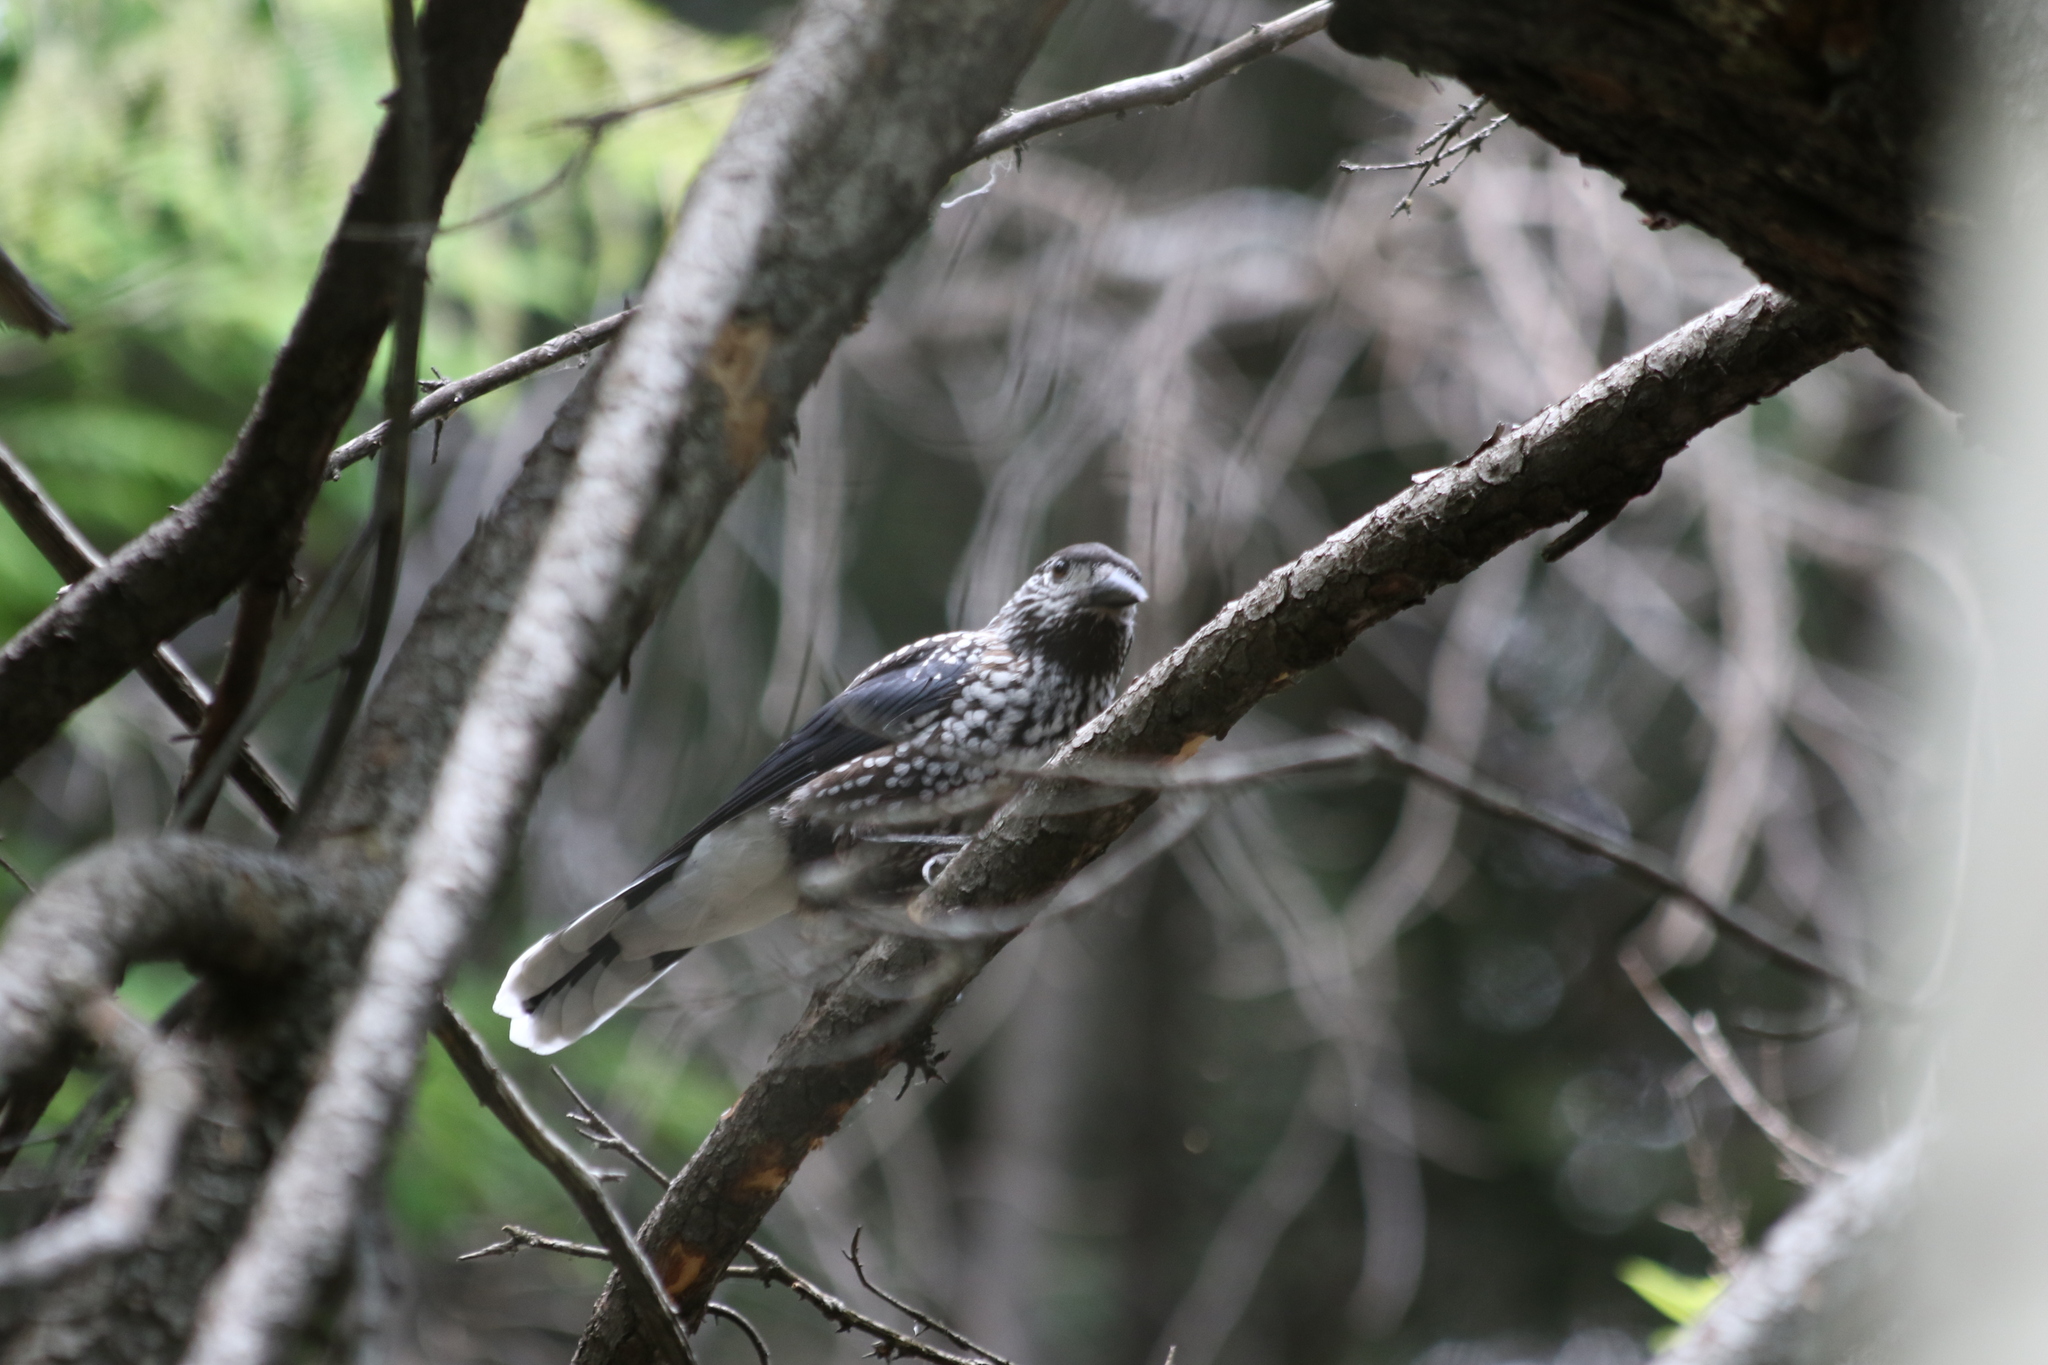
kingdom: Animalia
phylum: Chordata
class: Aves
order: Passeriformes
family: Corvidae
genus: Nucifraga
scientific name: Nucifraga caryocatactes
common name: Spotted nutcracker
